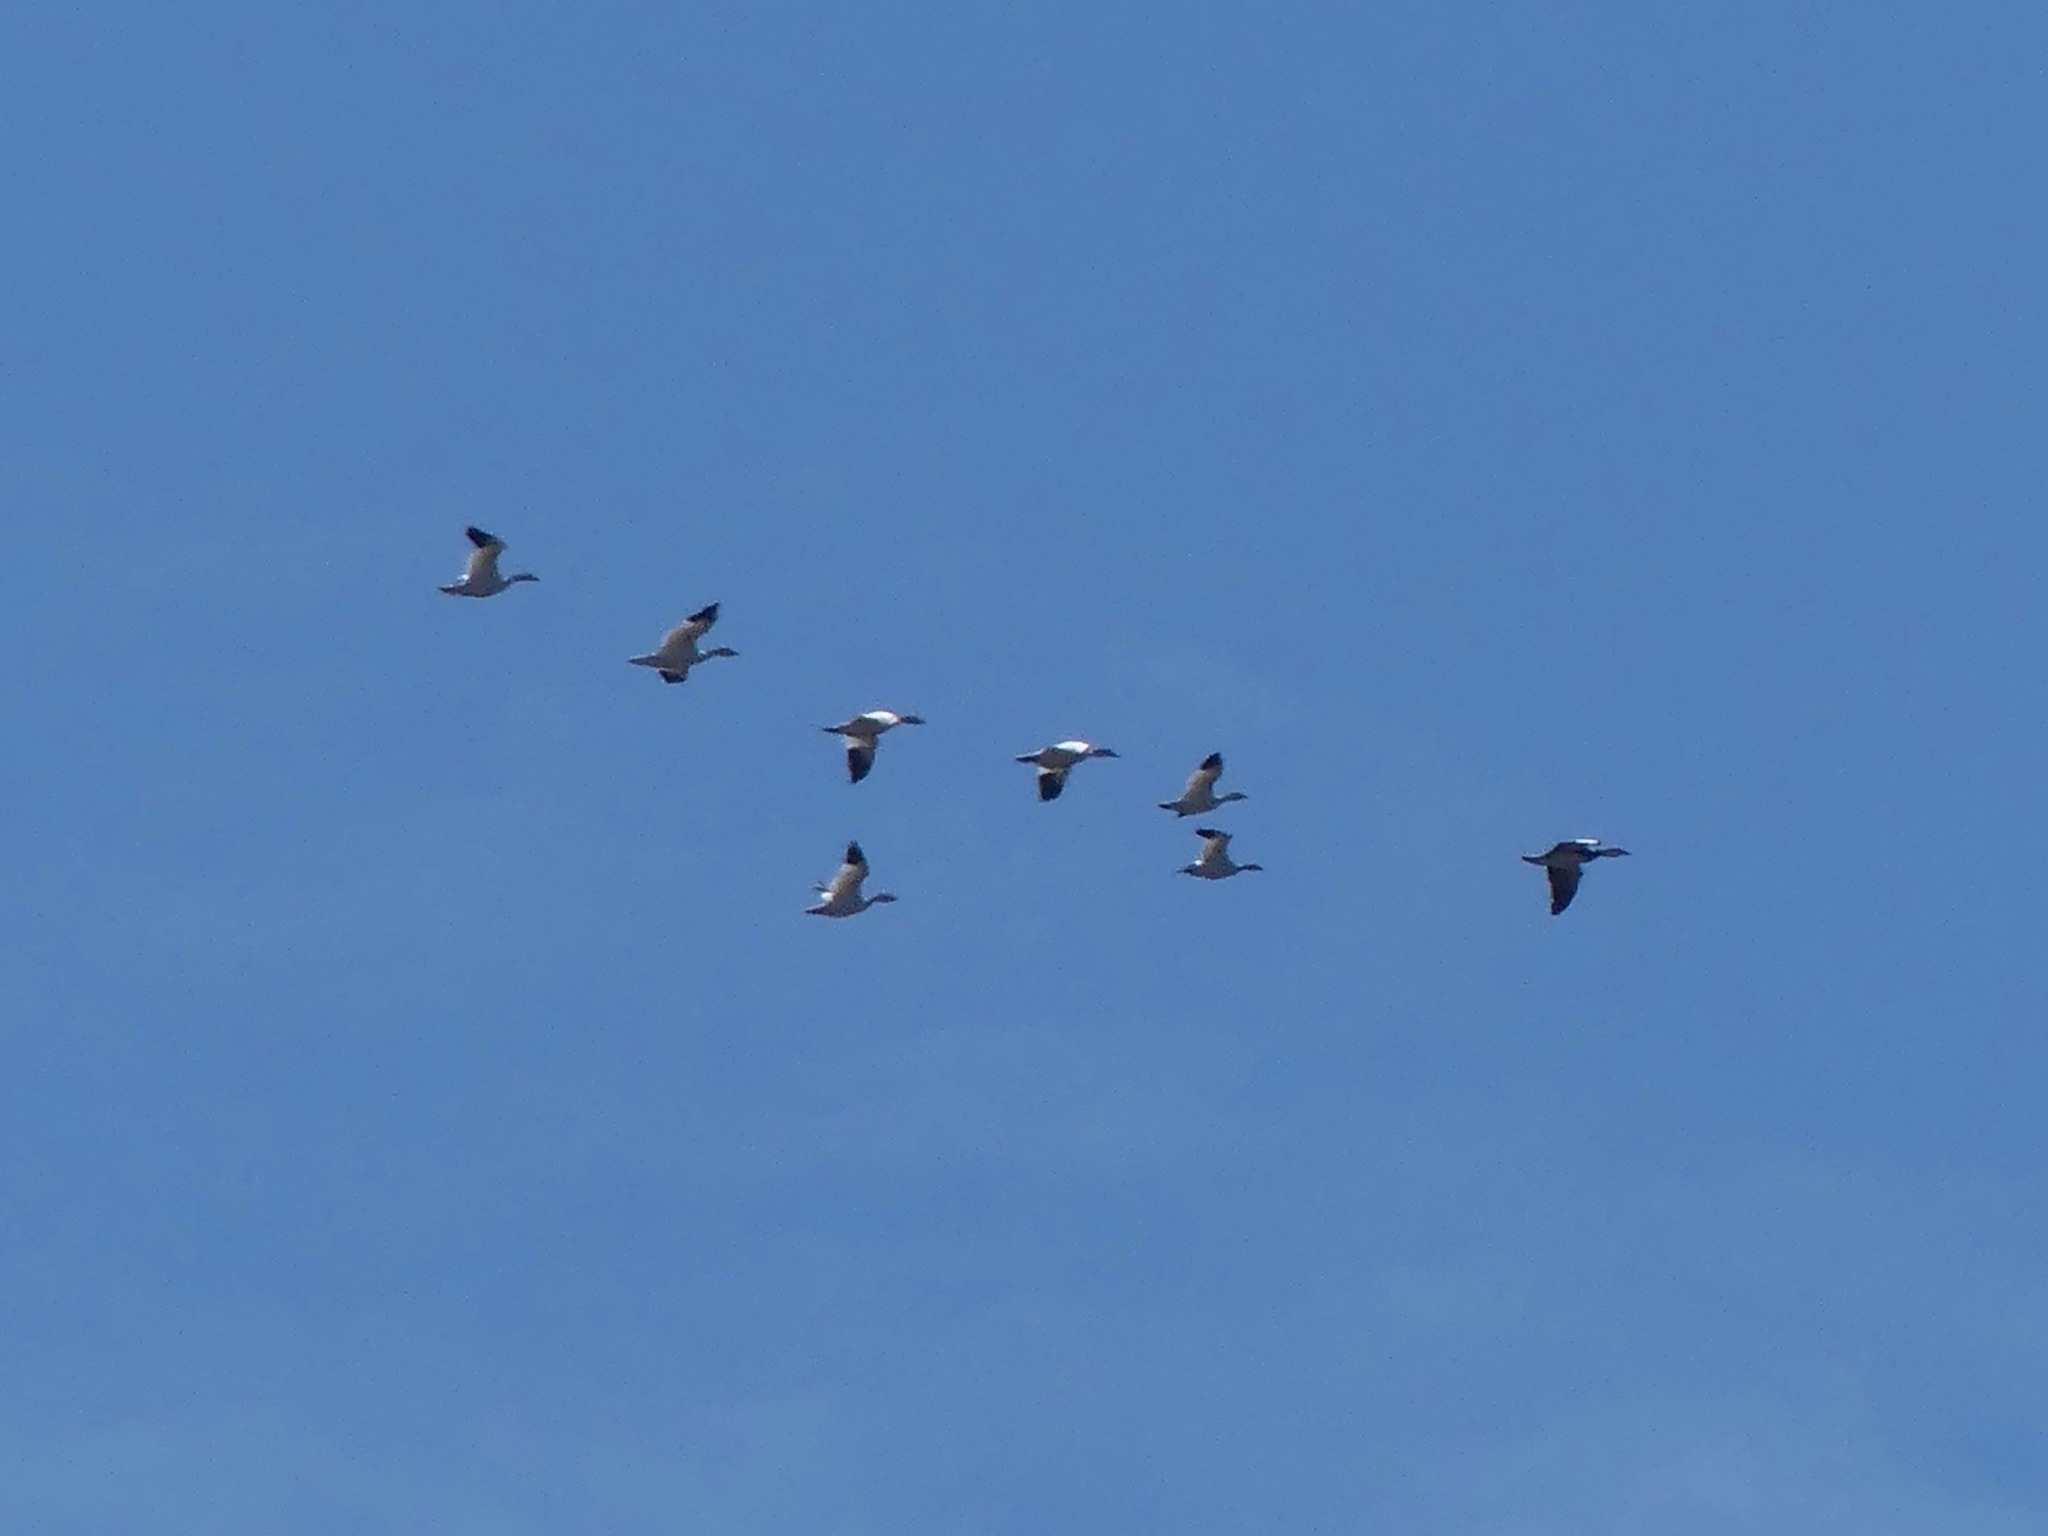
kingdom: Animalia
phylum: Chordata
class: Aves
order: Anseriformes
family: Anatidae
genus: Anser
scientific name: Anser caerulescens
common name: Snow goose
